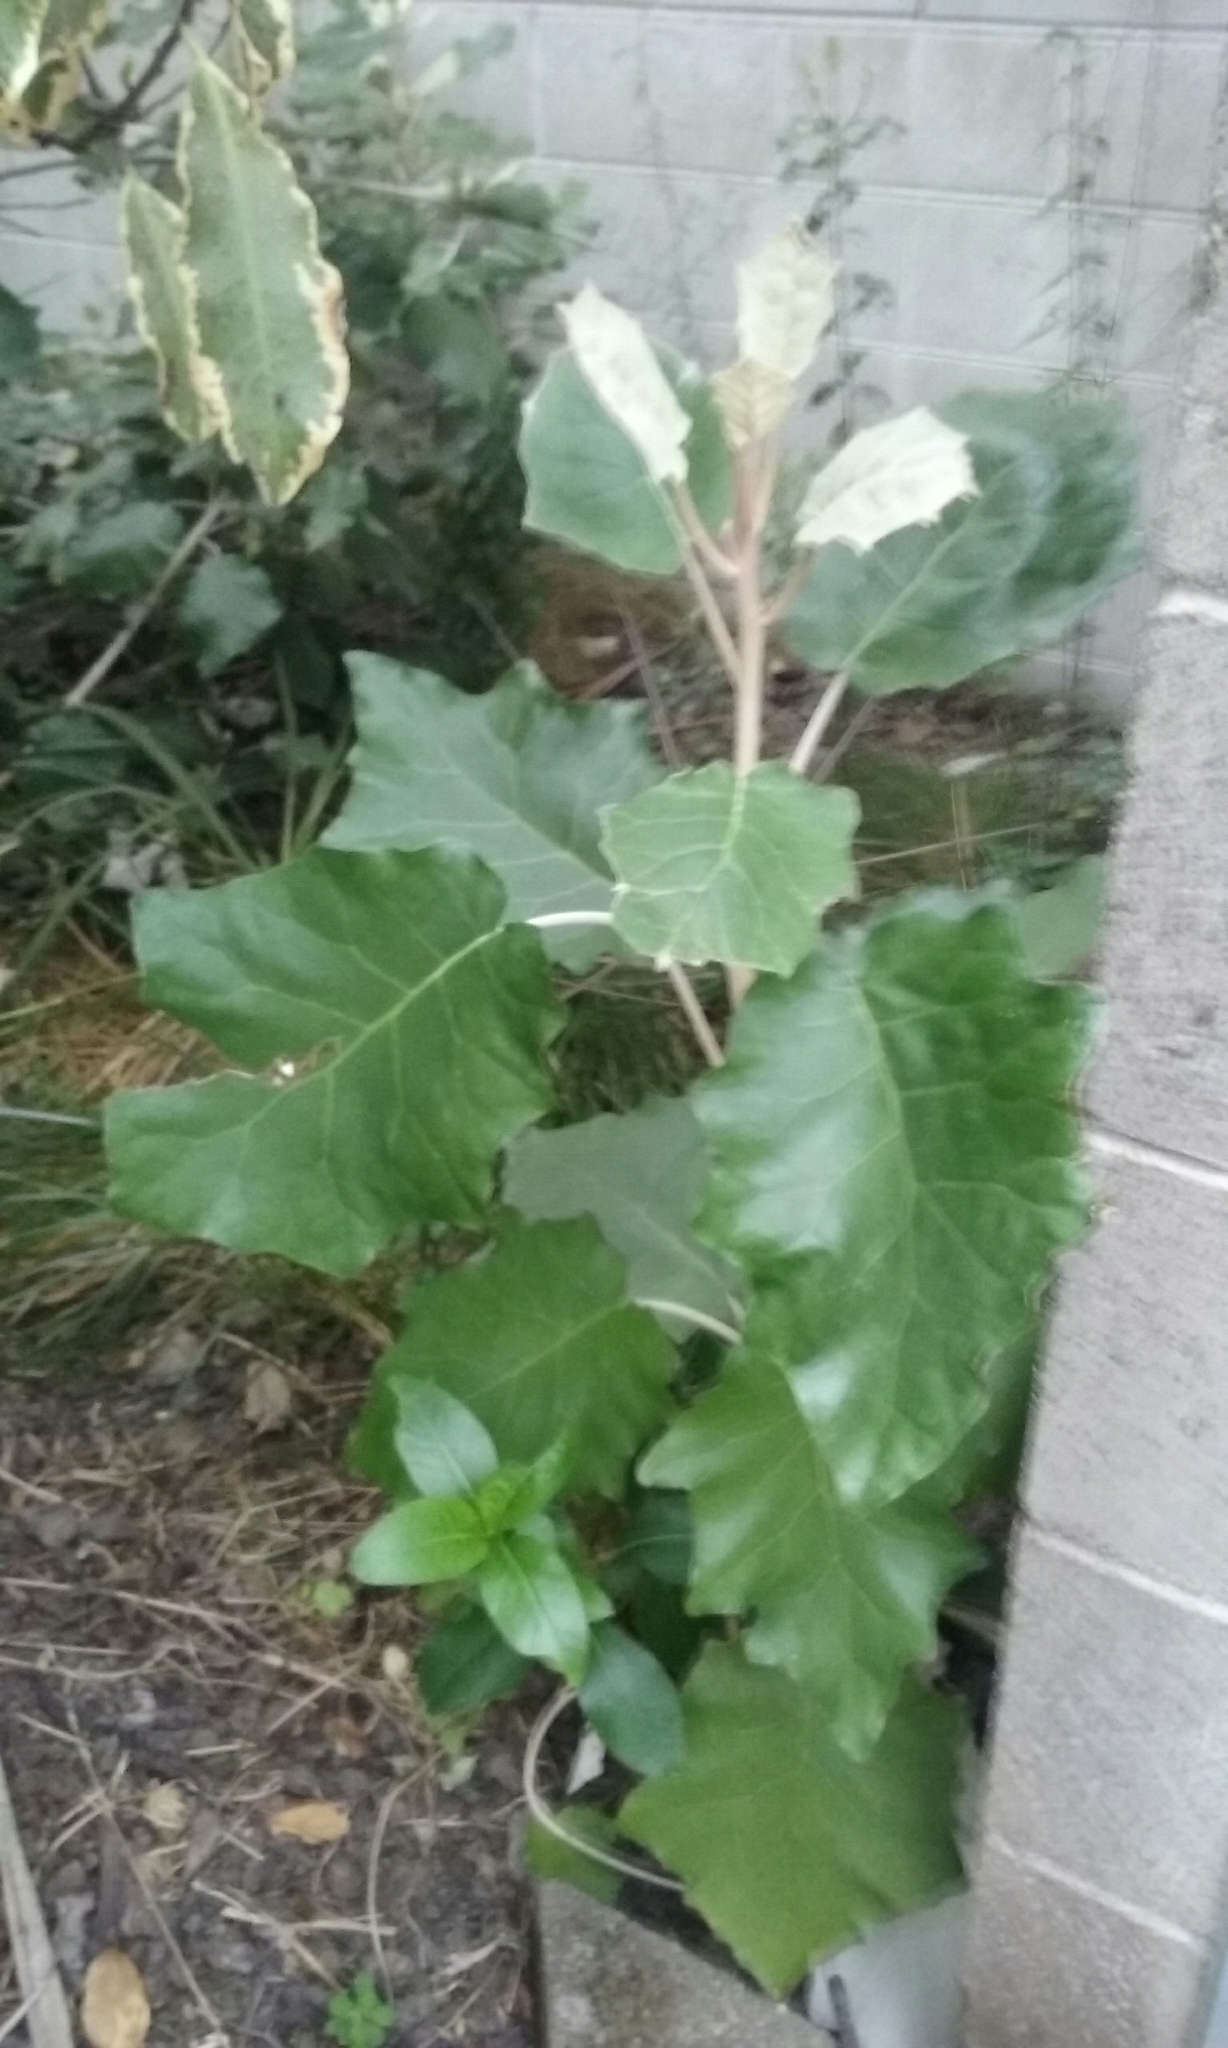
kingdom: Plantae
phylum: Tracheophyta
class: Magnoliopsida
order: Asterales
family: Asteraceae
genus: Brachyglottis
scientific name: Brachyglottis repanda
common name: Hedge ragwort
